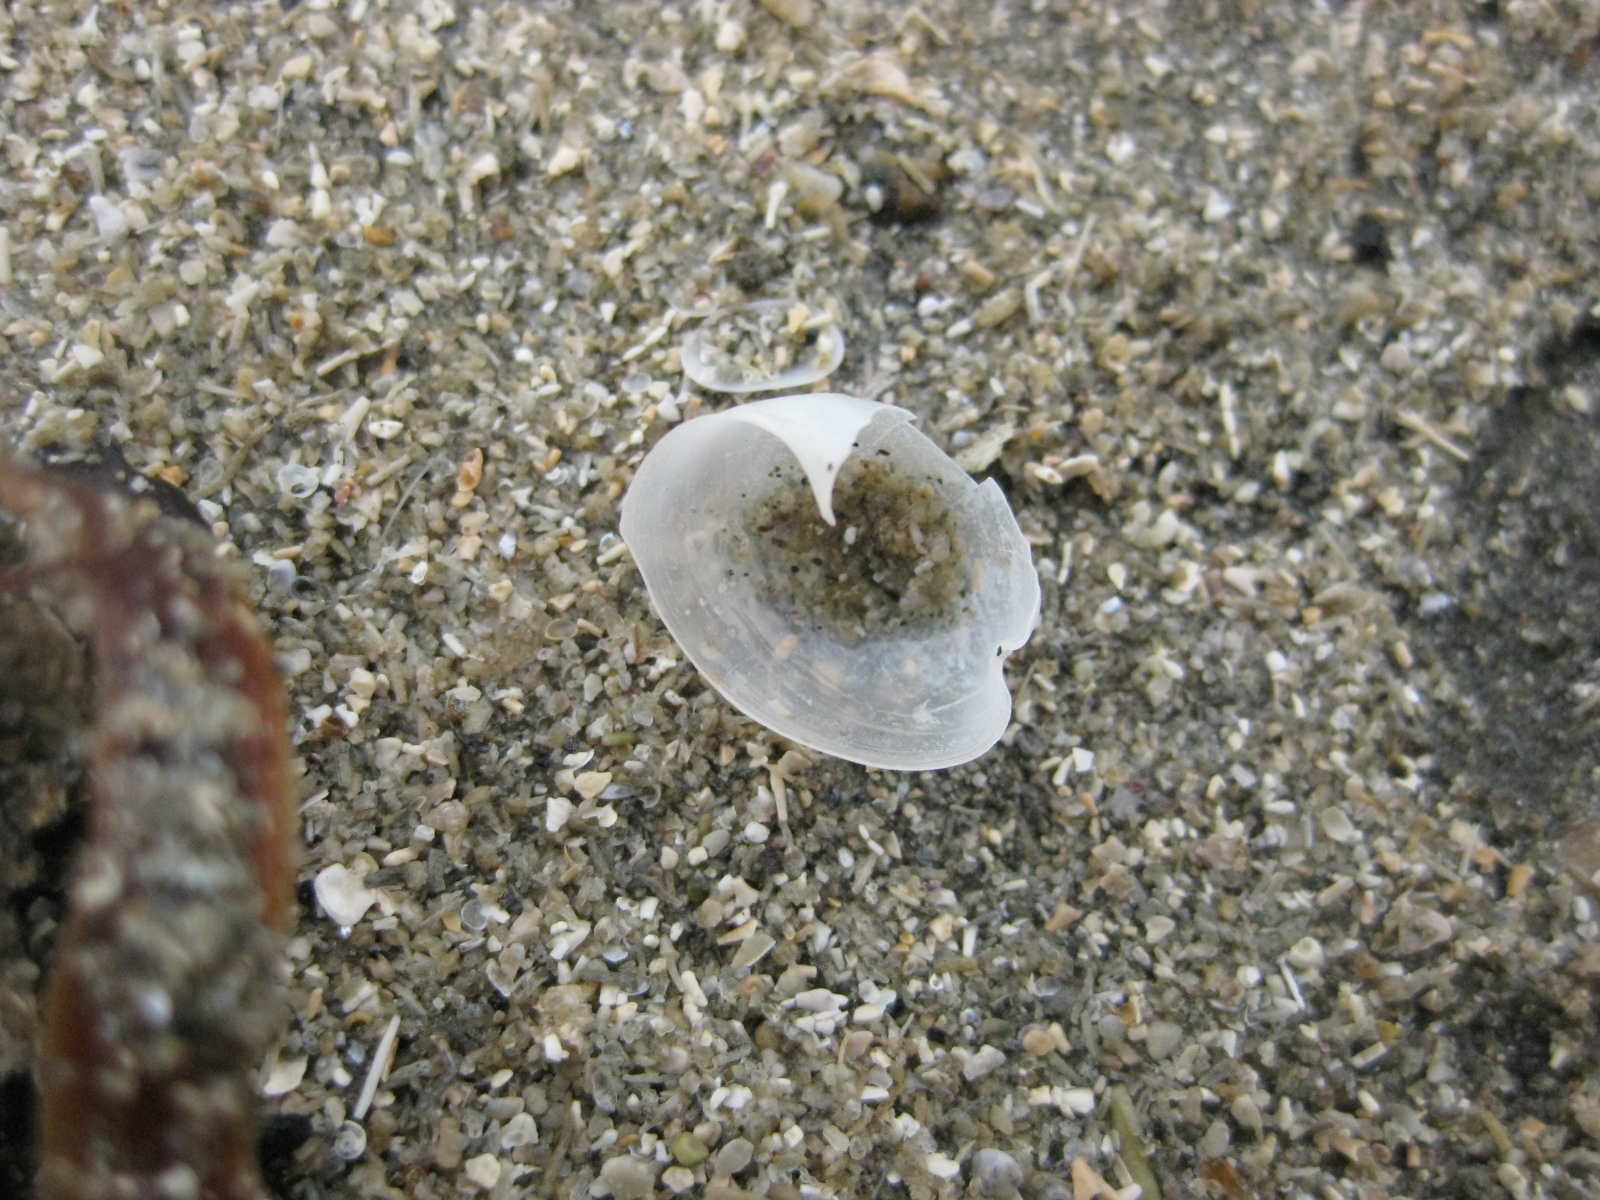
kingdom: Animalia
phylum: Mollusca
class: Gastropoda
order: Cephalaspidea
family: Haminoeidae
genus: Papawera
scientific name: Papawera zelandiae
